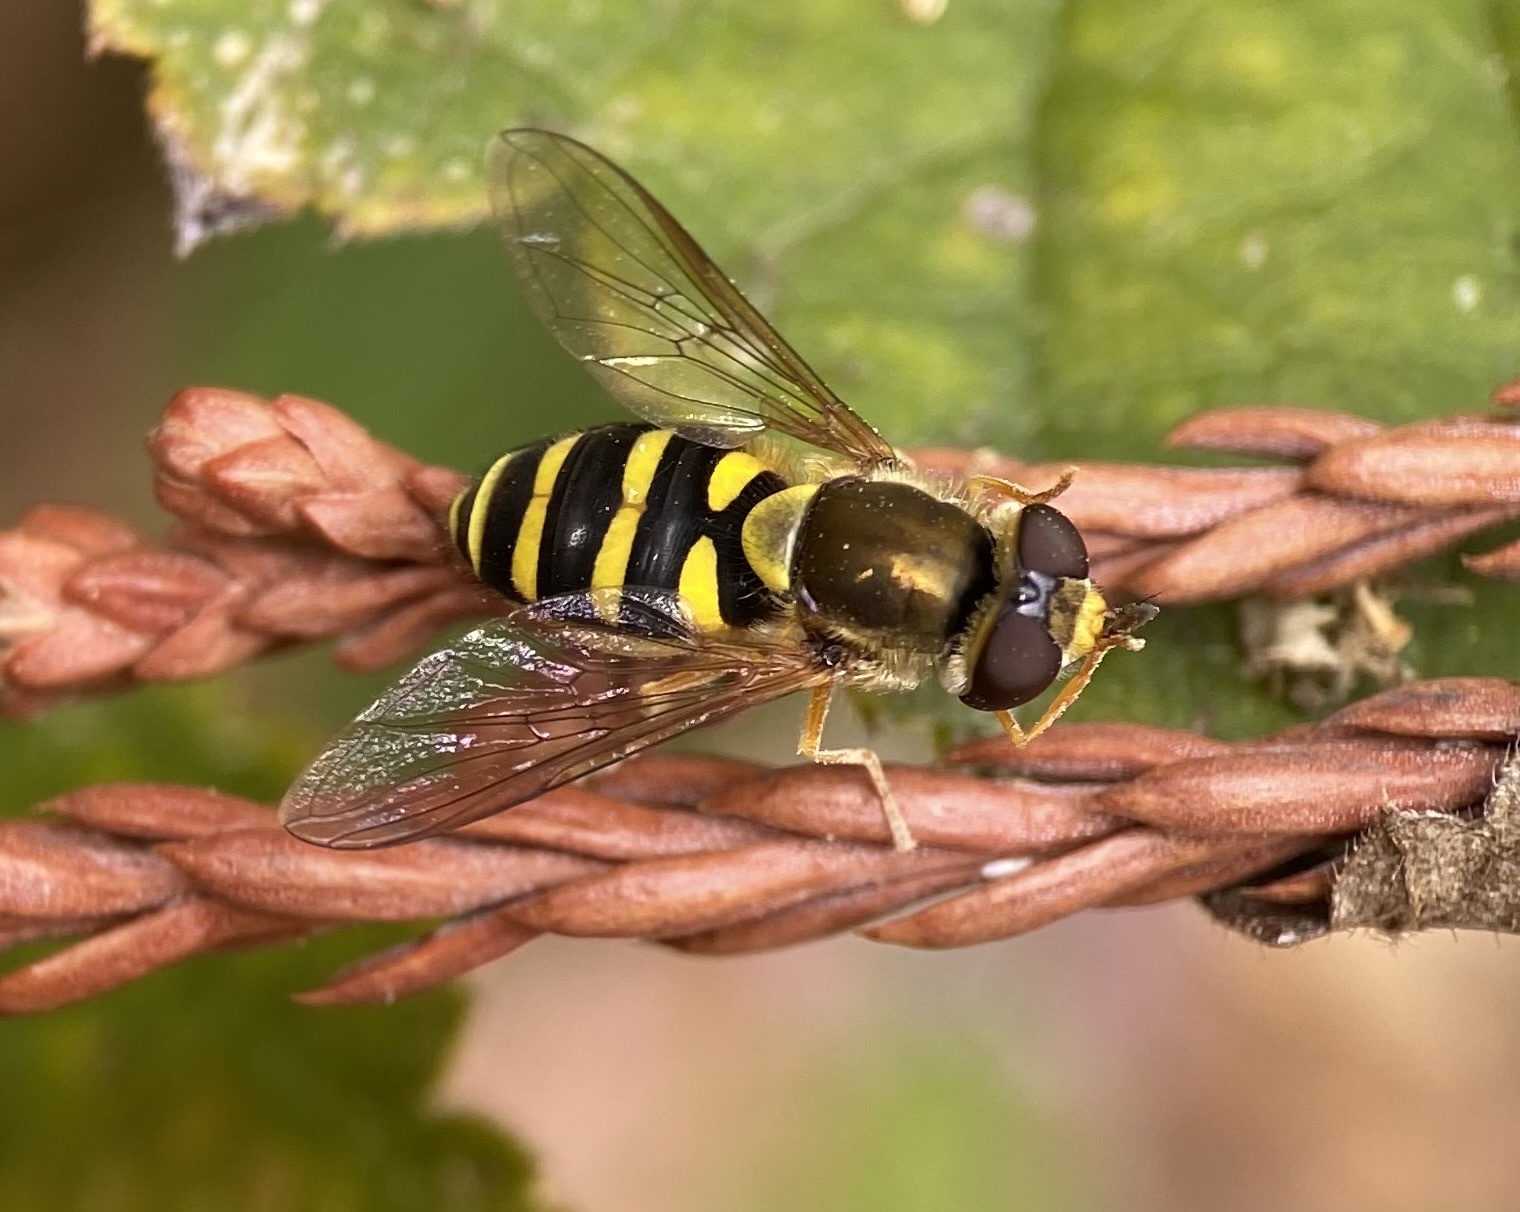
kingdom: Animalia
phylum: Arthropoda
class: Insecta
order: Diptera
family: Syrphidae
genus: Syrphus
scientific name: Syrphus opinator
